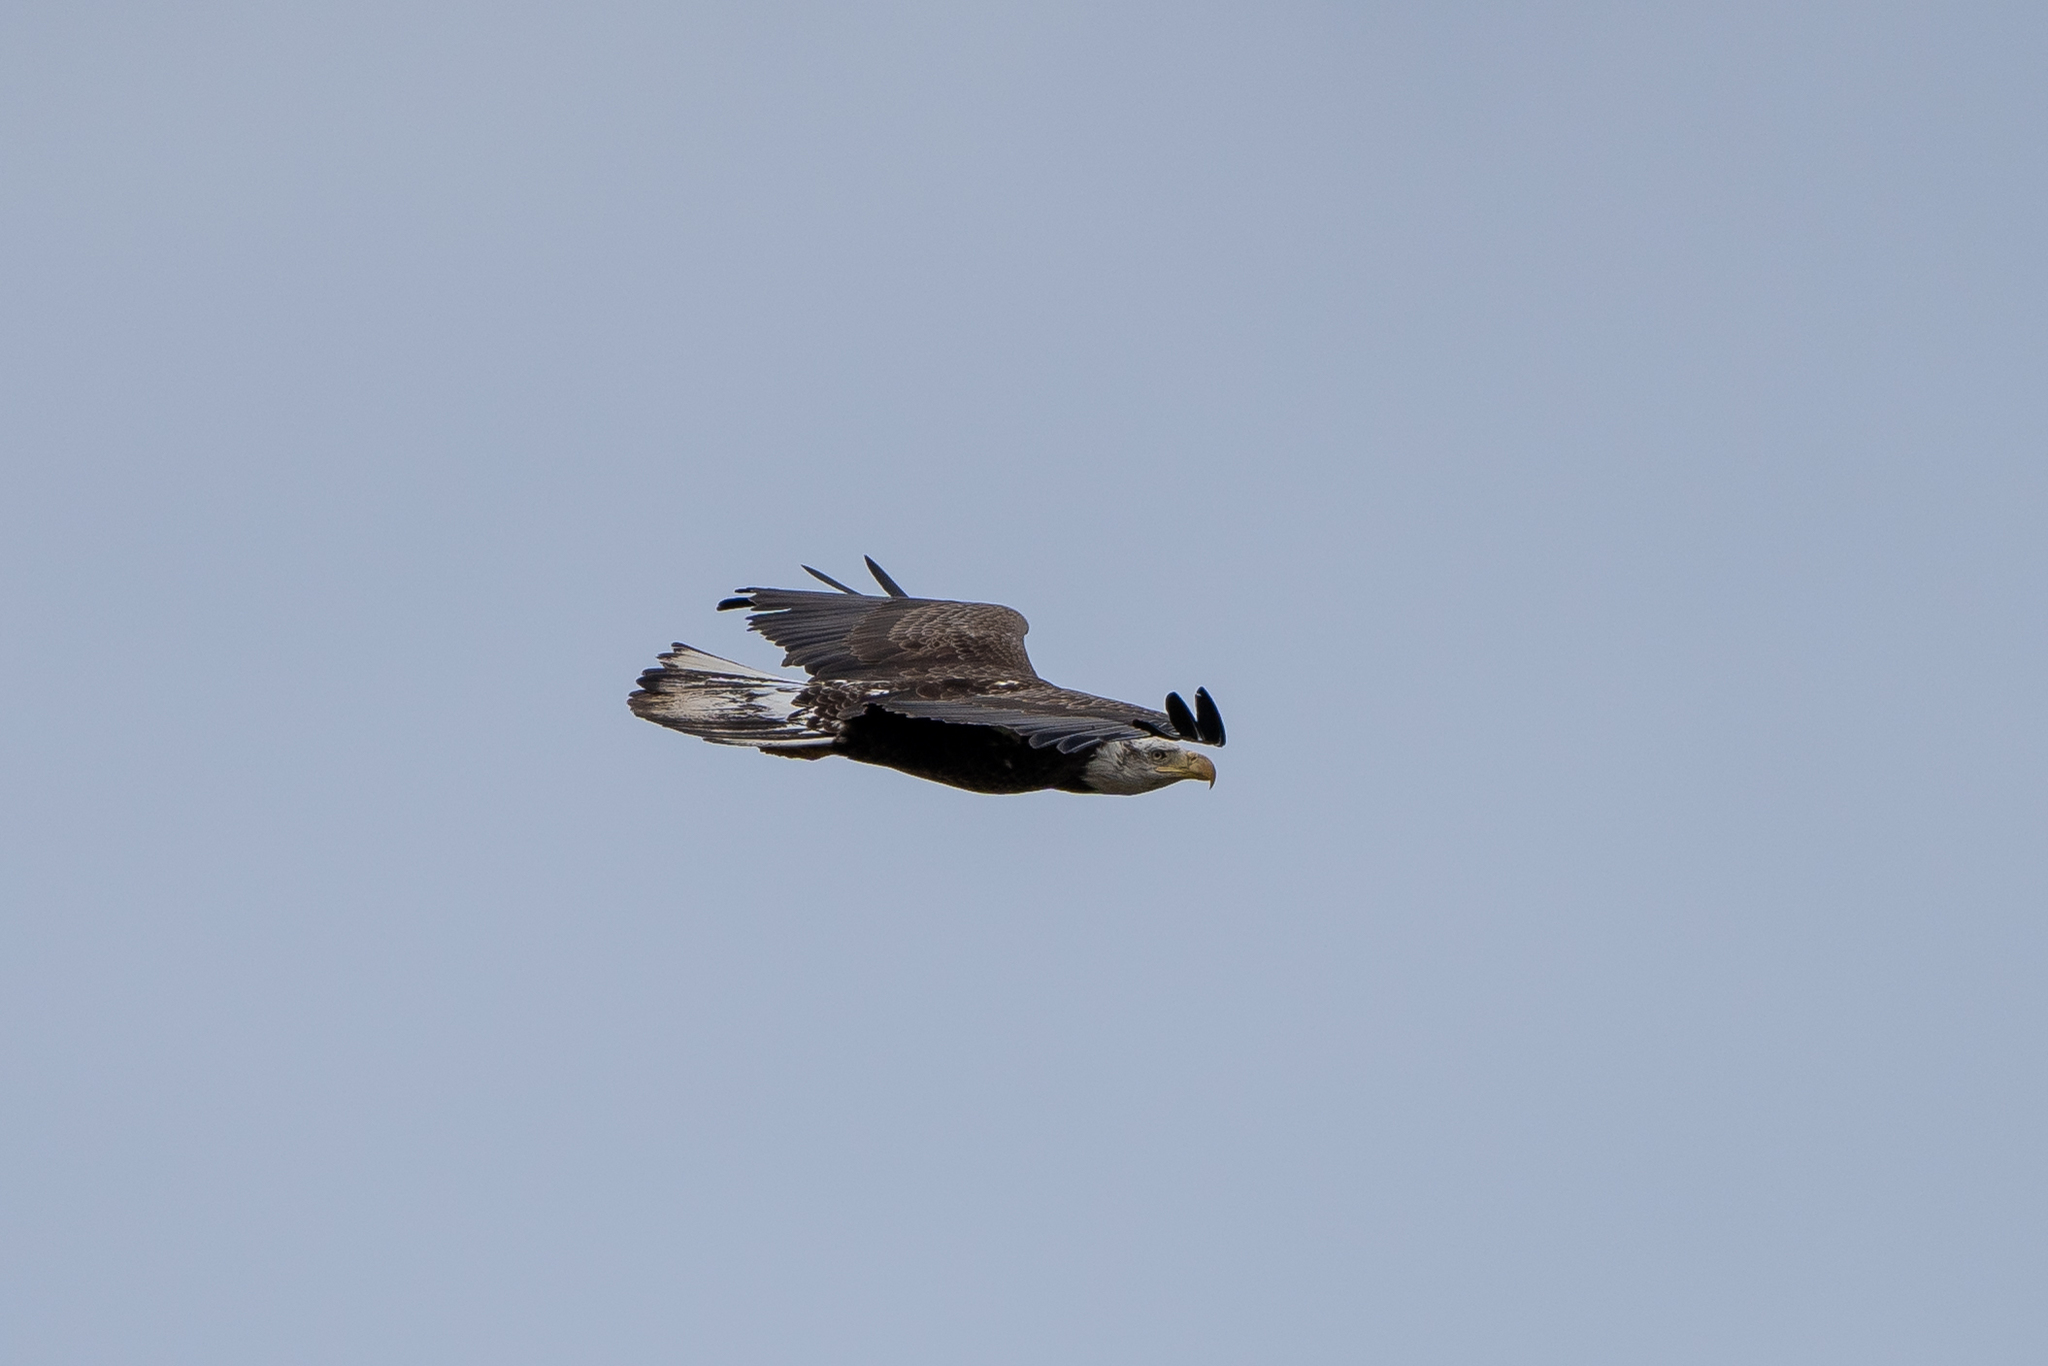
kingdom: Animalia
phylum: Chordata
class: Aves
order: Accipitriformes
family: Accipitridae
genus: Haliaeetus
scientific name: Haliaeetus leucocephalus
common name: Bald eagle
